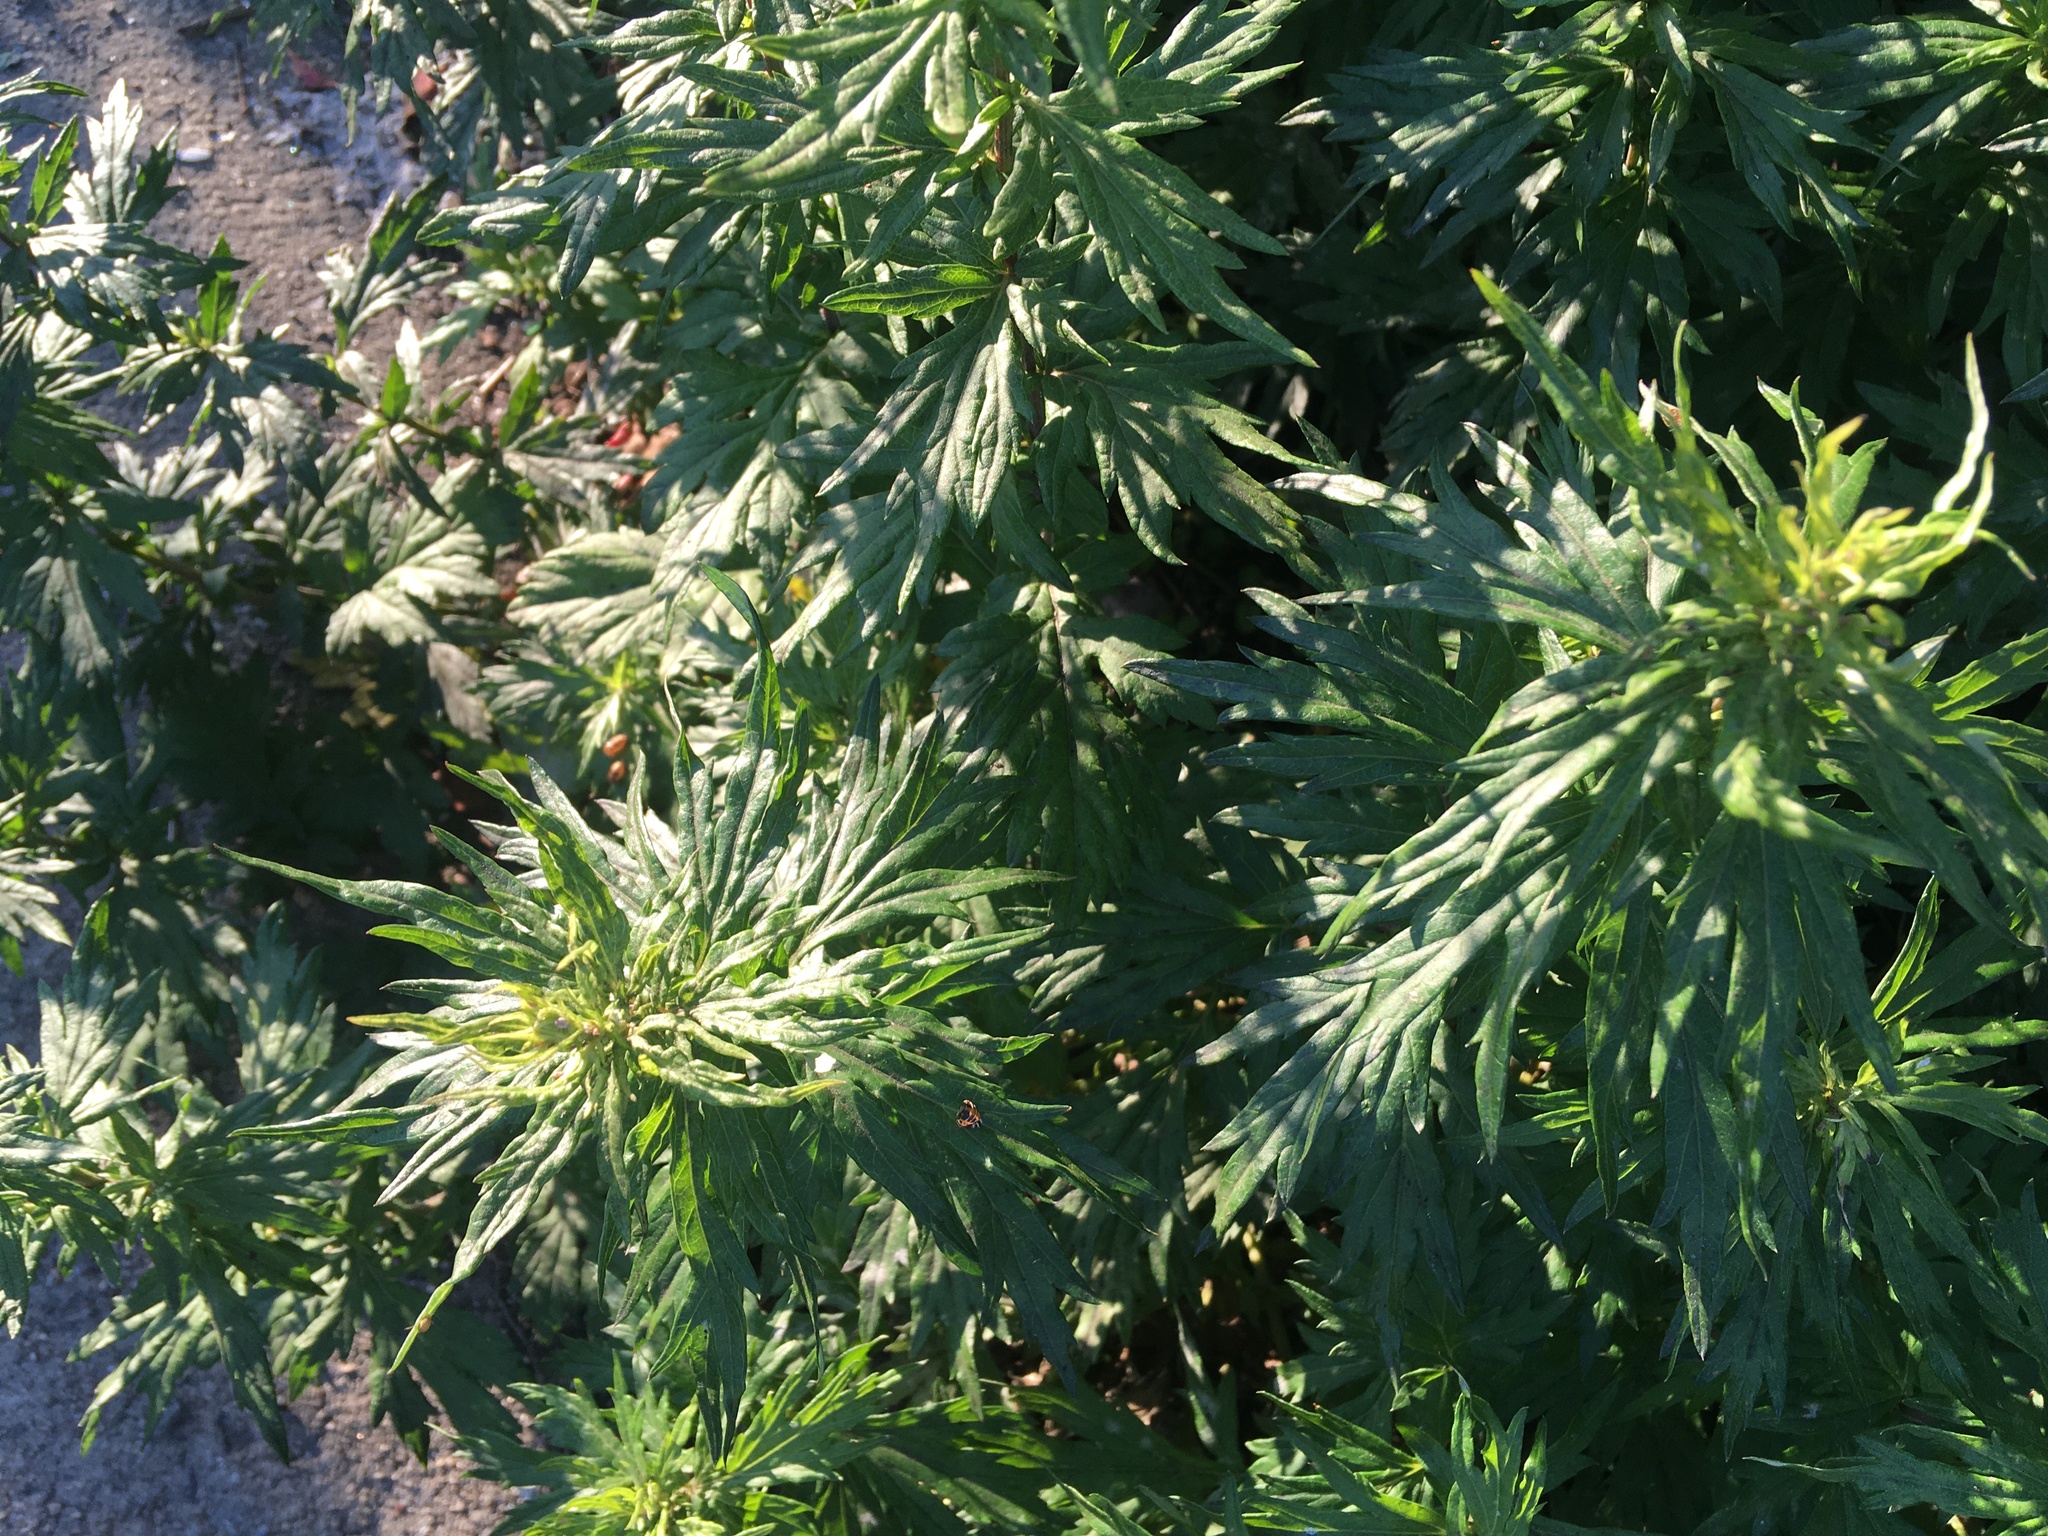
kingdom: Plantae
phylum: Tracheophyta
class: Magnoliopsida
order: Asterales
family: Asteraceae
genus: Artemisia
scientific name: Artemisia vulgaris
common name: Mugwort
